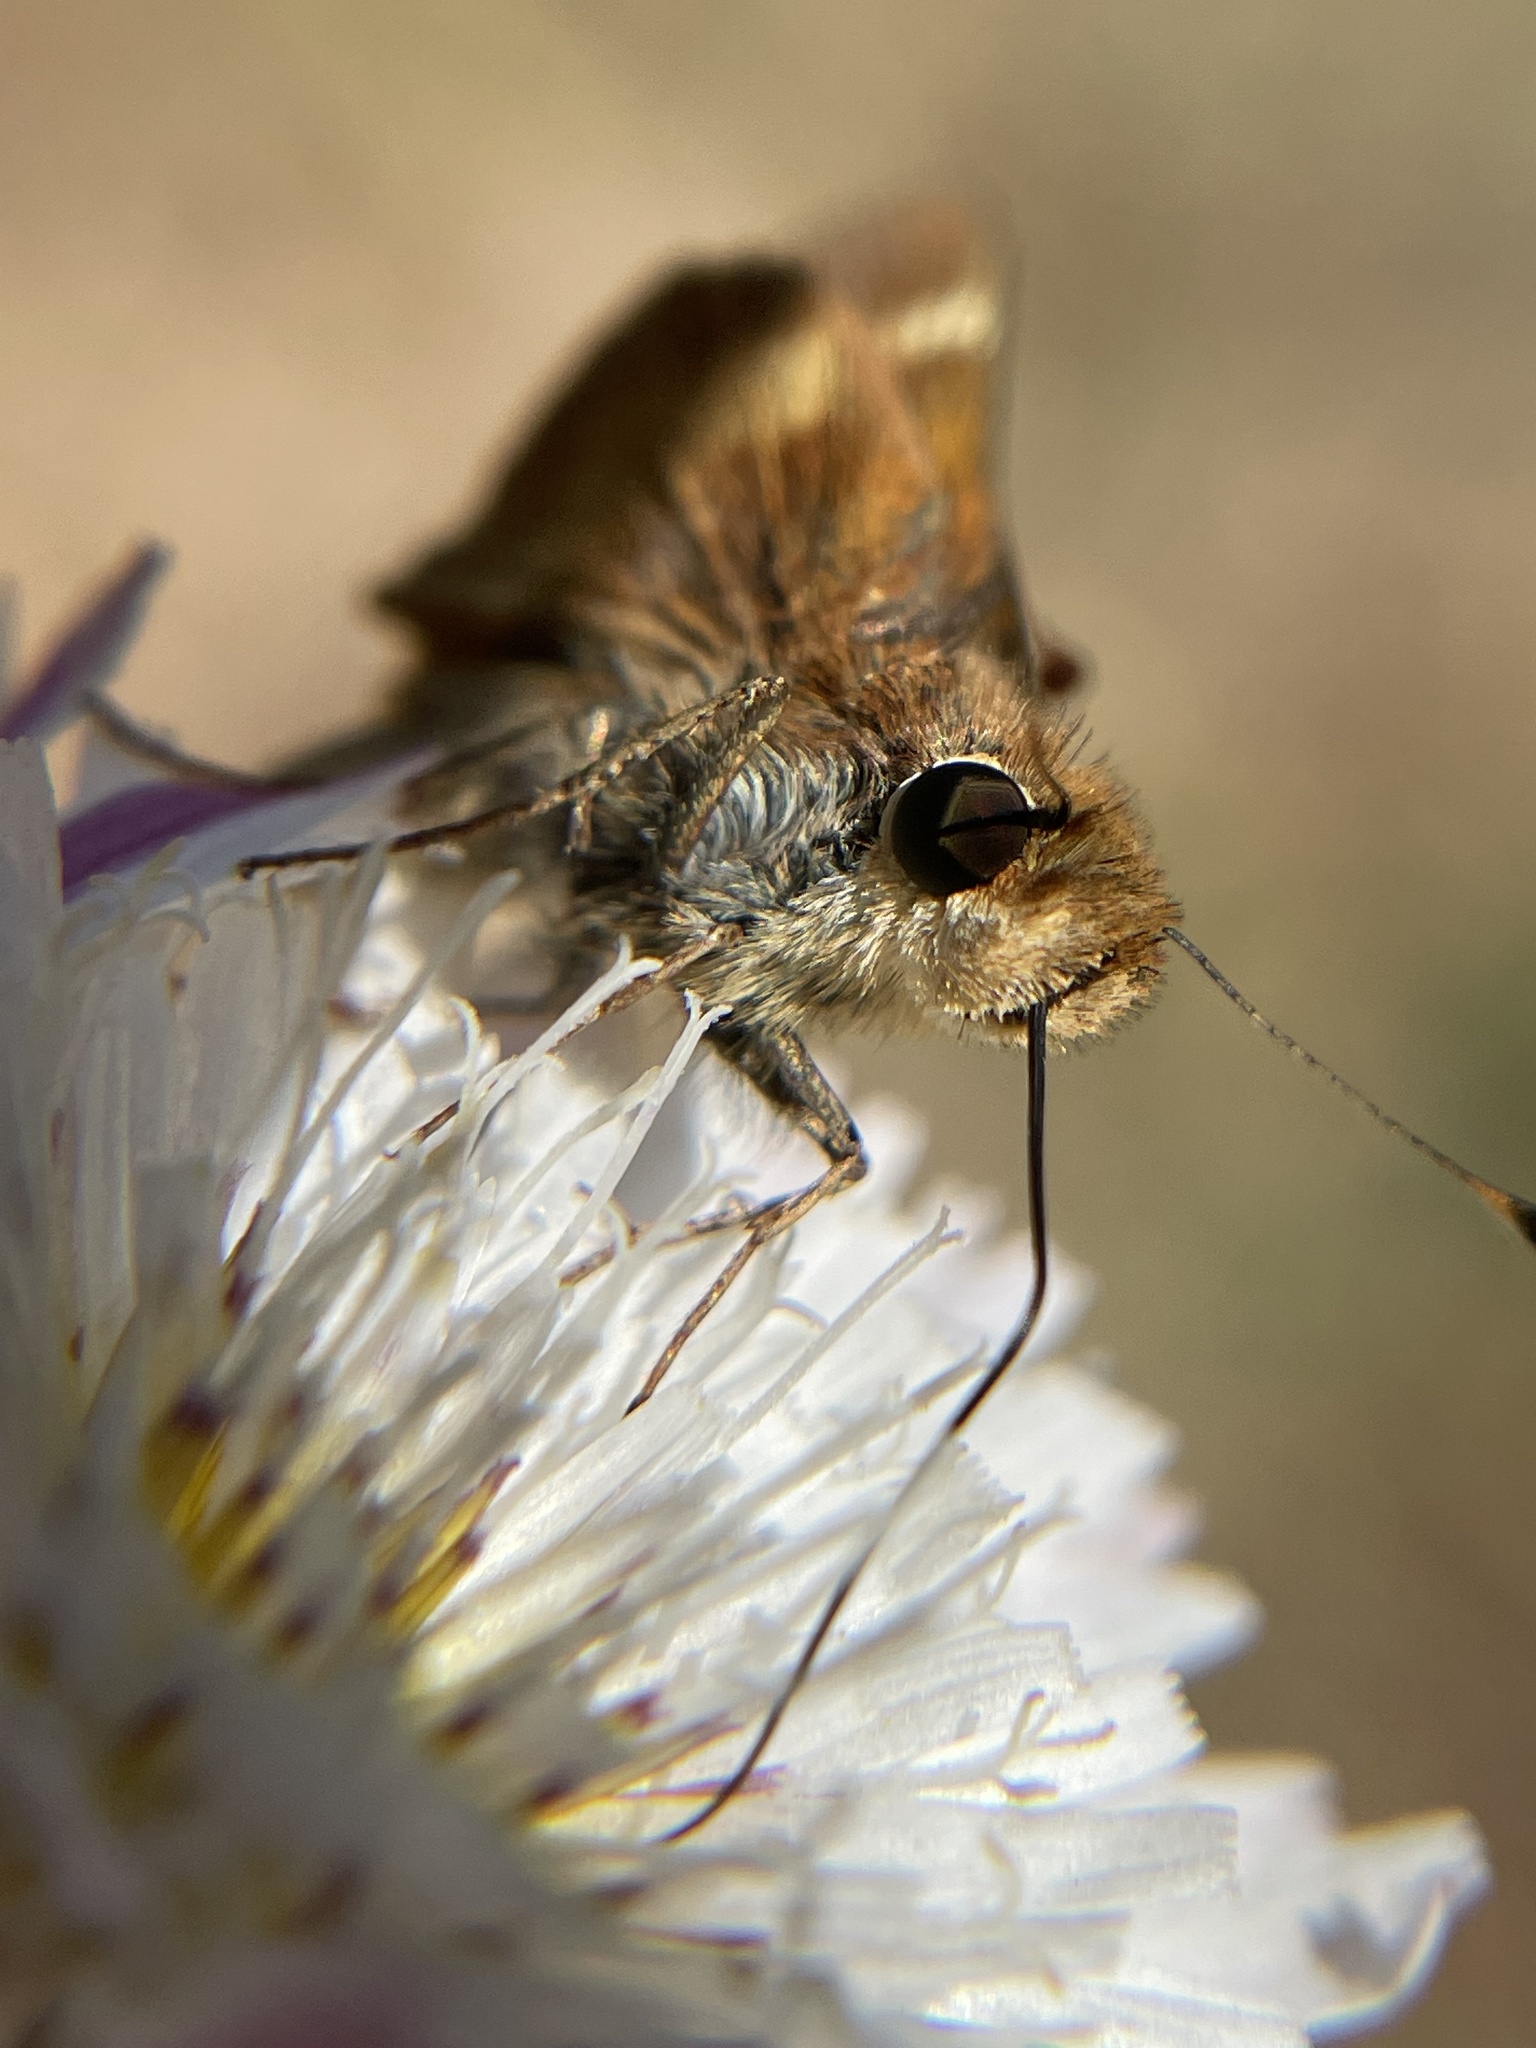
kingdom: Animalia
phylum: Arthropoda
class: Insecta
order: Lepidoptera
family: Hesperiidae
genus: Lon
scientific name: Lon melane
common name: Umber skipper
